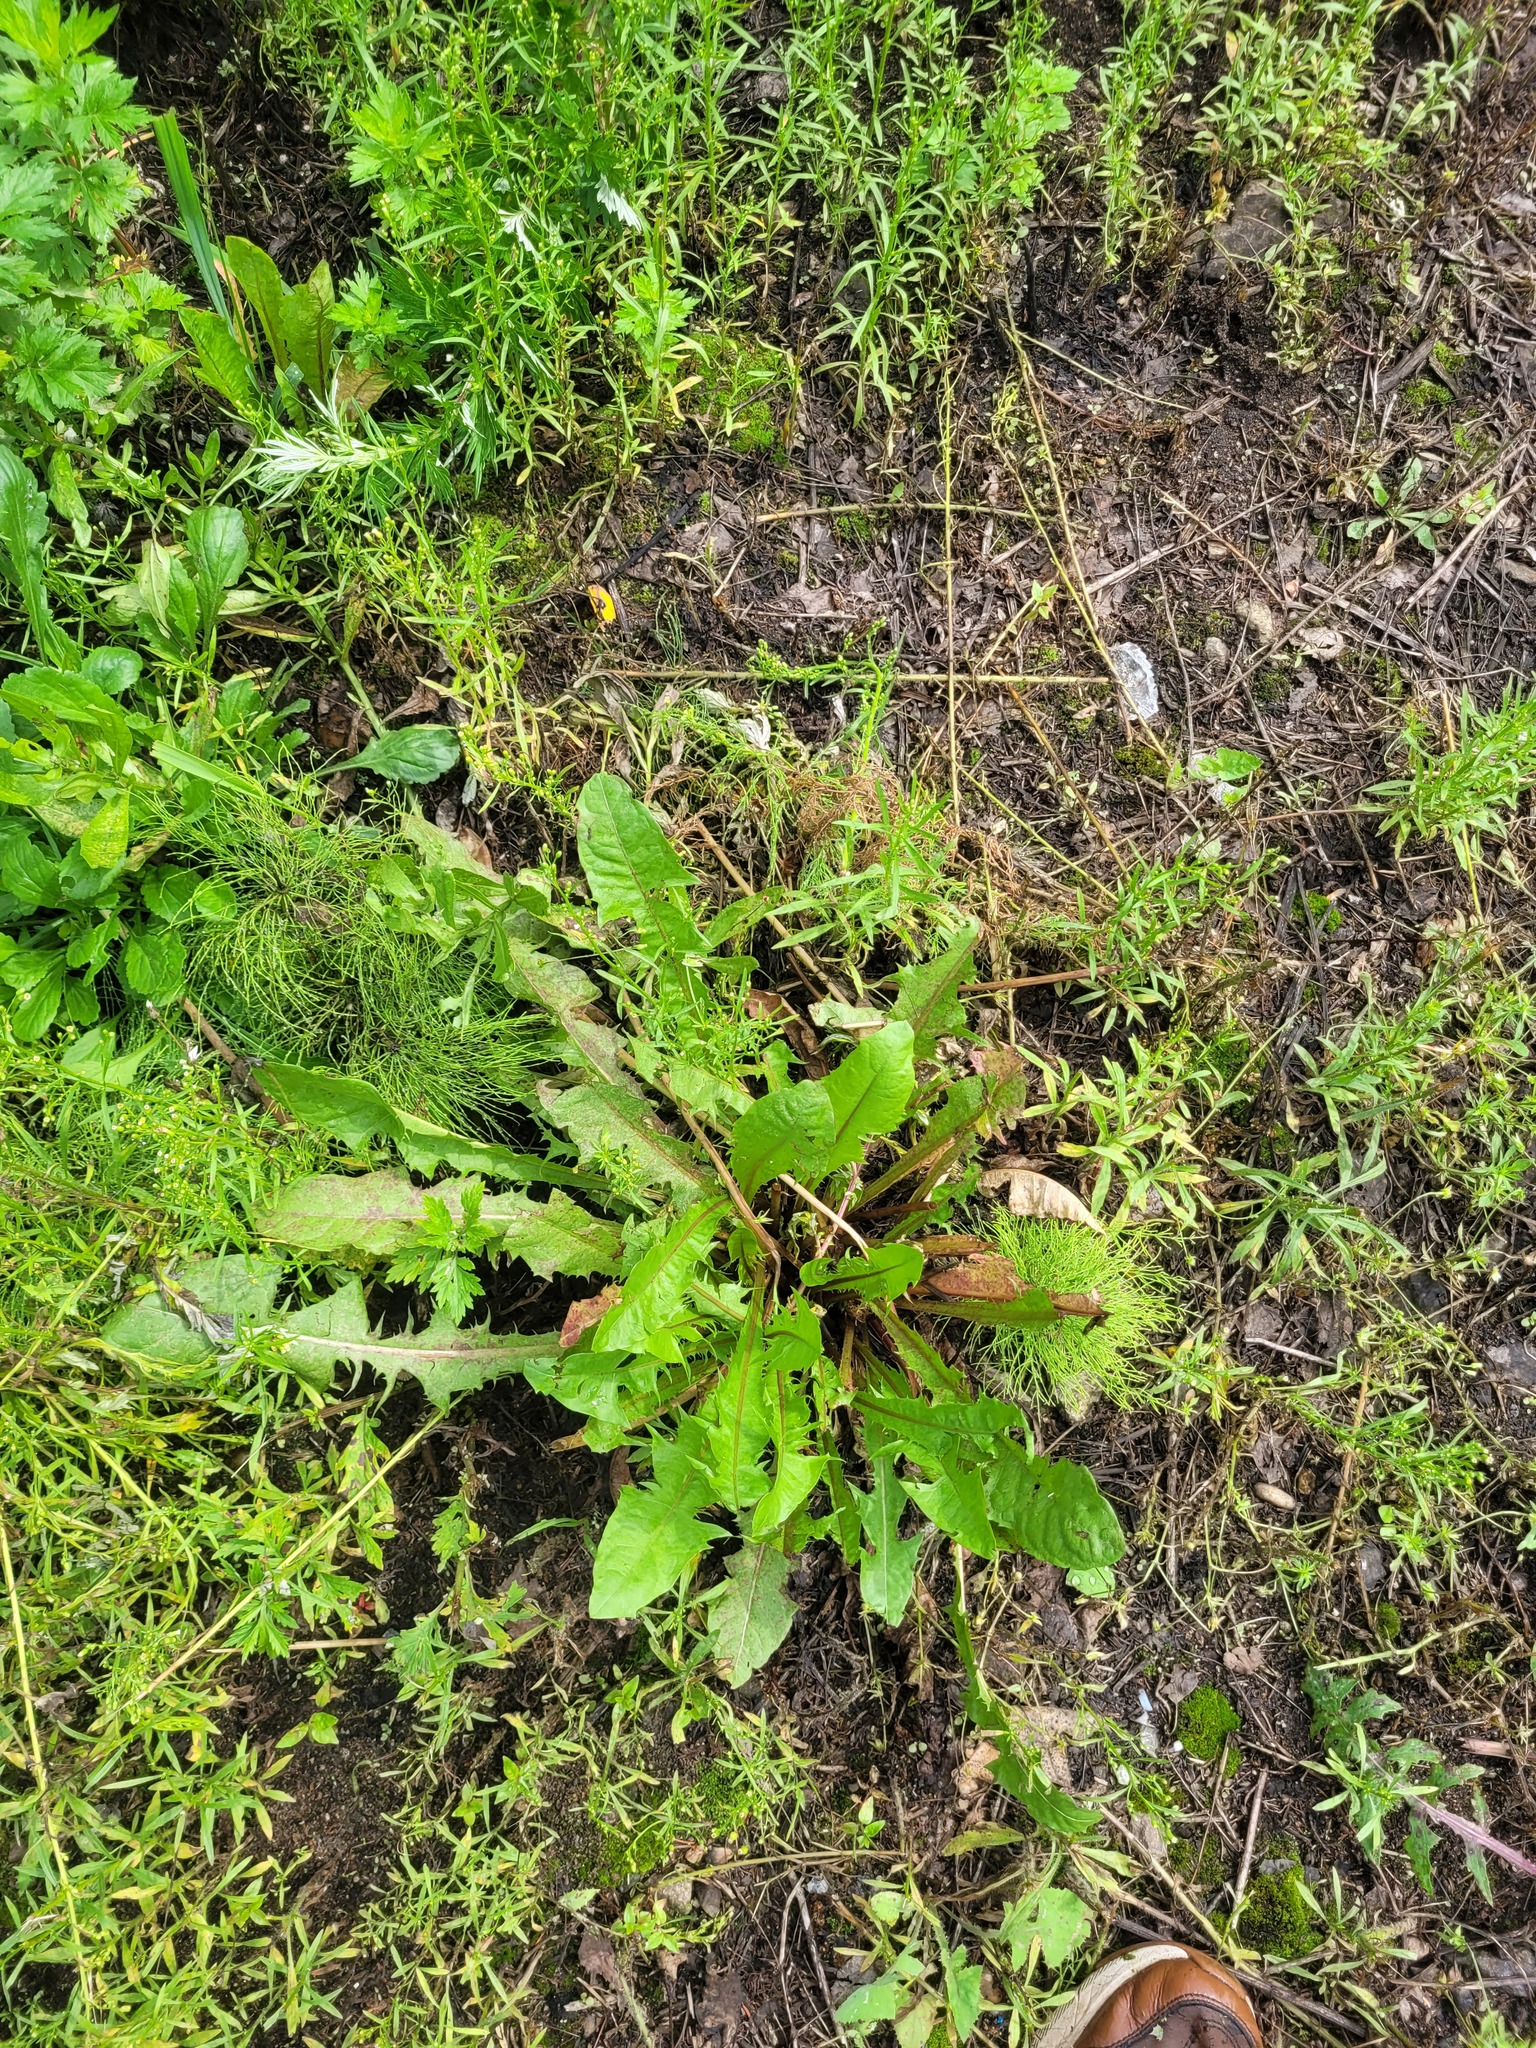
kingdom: Plantae
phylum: Tracheophyta
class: Magnoliopsida
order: Asterales
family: Asteraceae
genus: Taraxacum
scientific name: Taraxacum officinale
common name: Common dandelion
